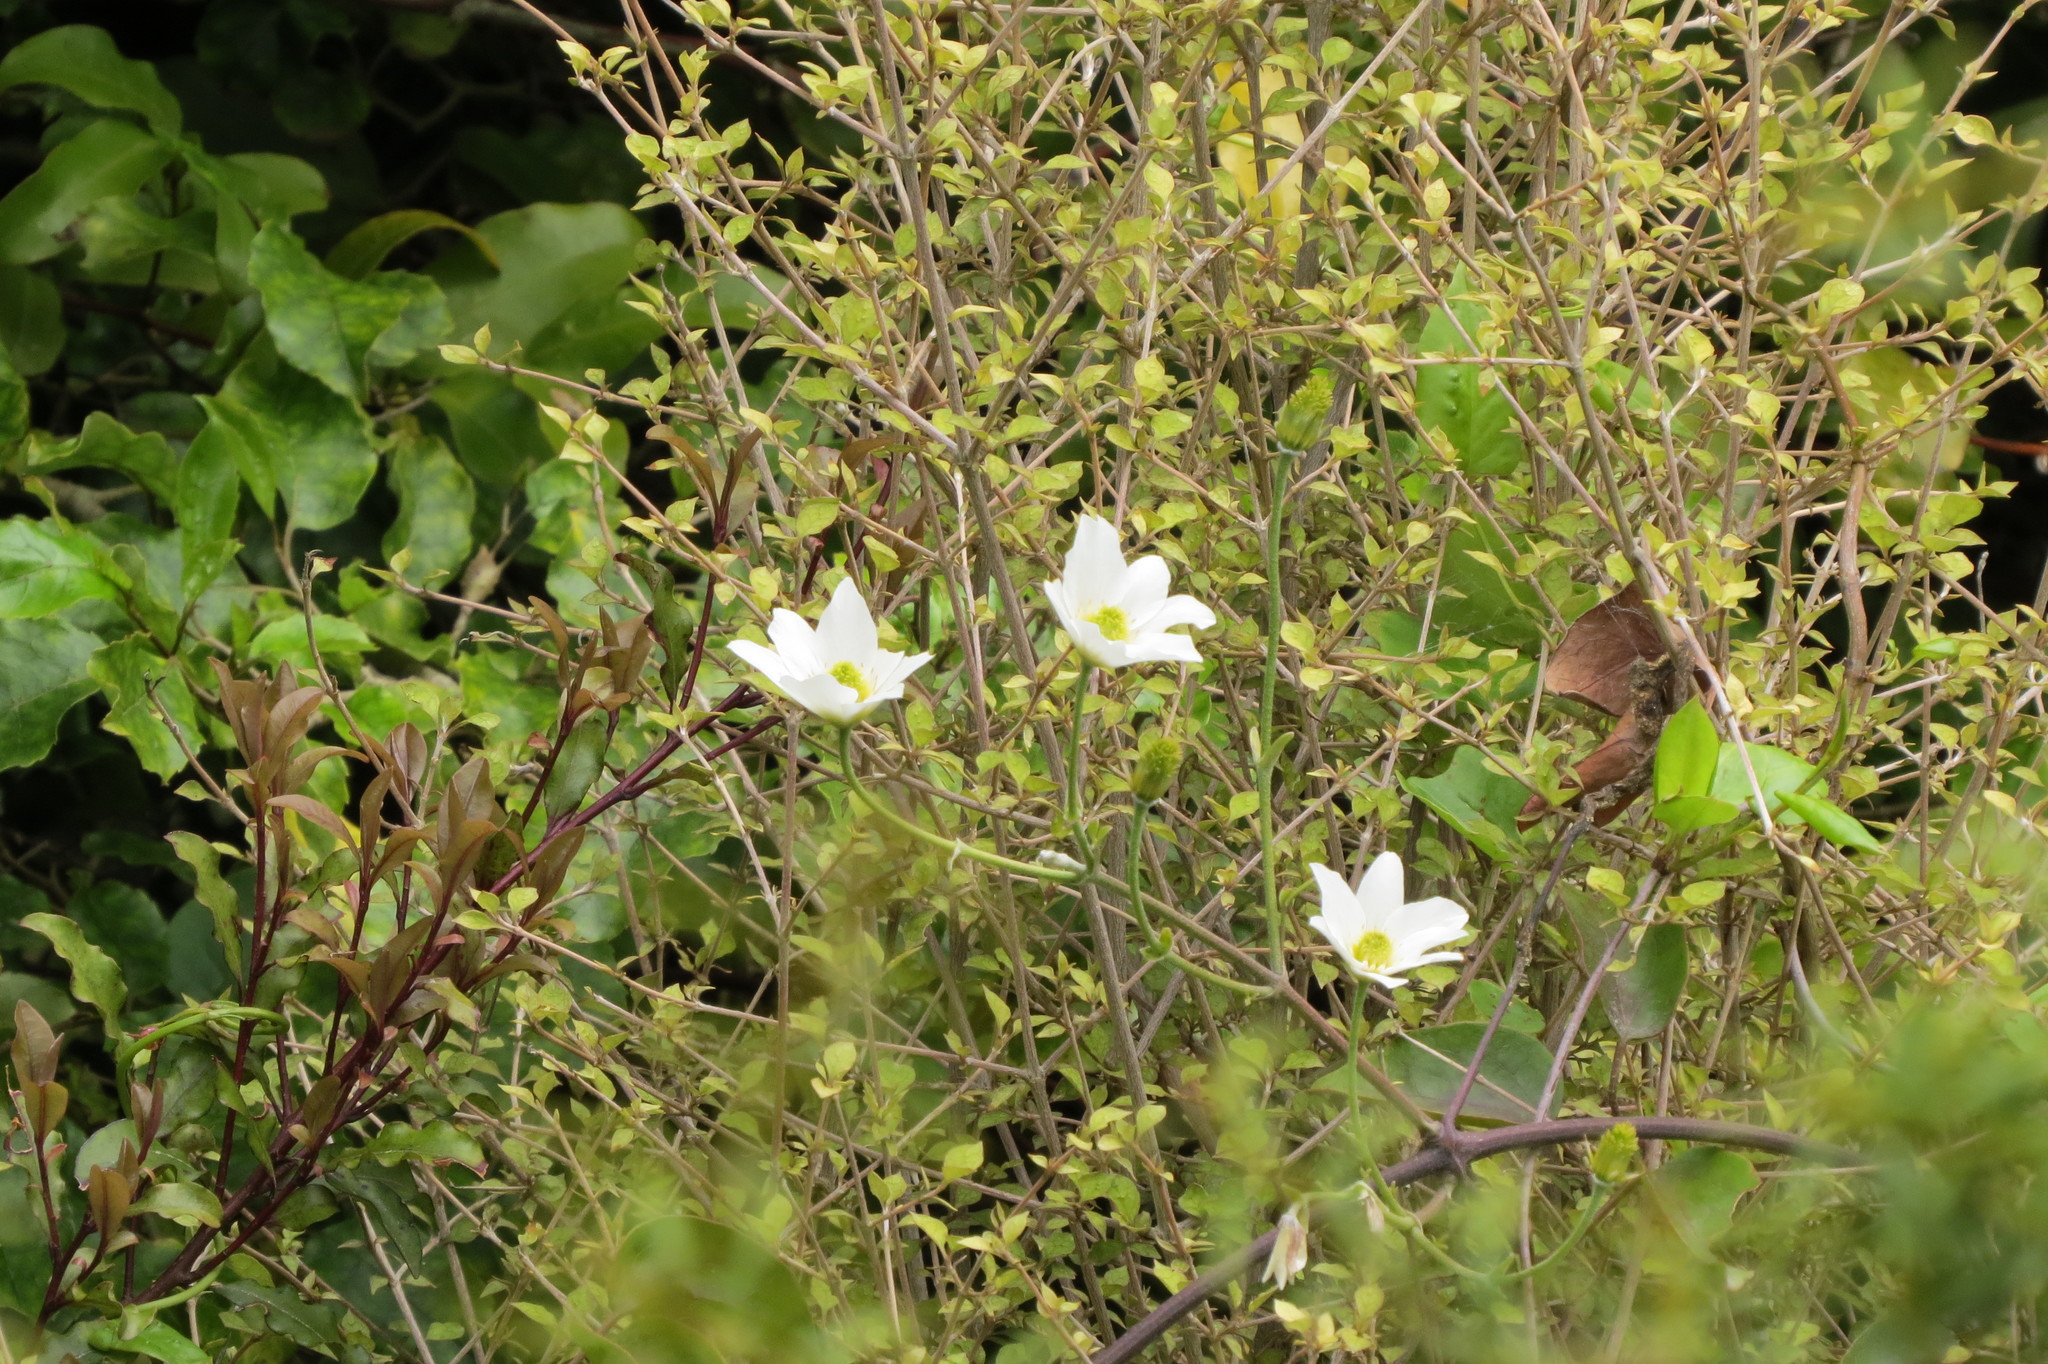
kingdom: Plantae
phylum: Tracheophyta
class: Magnoliopsida
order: Ranunculales
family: Ranunculaceae
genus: Clematis
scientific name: Clematis paniculata
